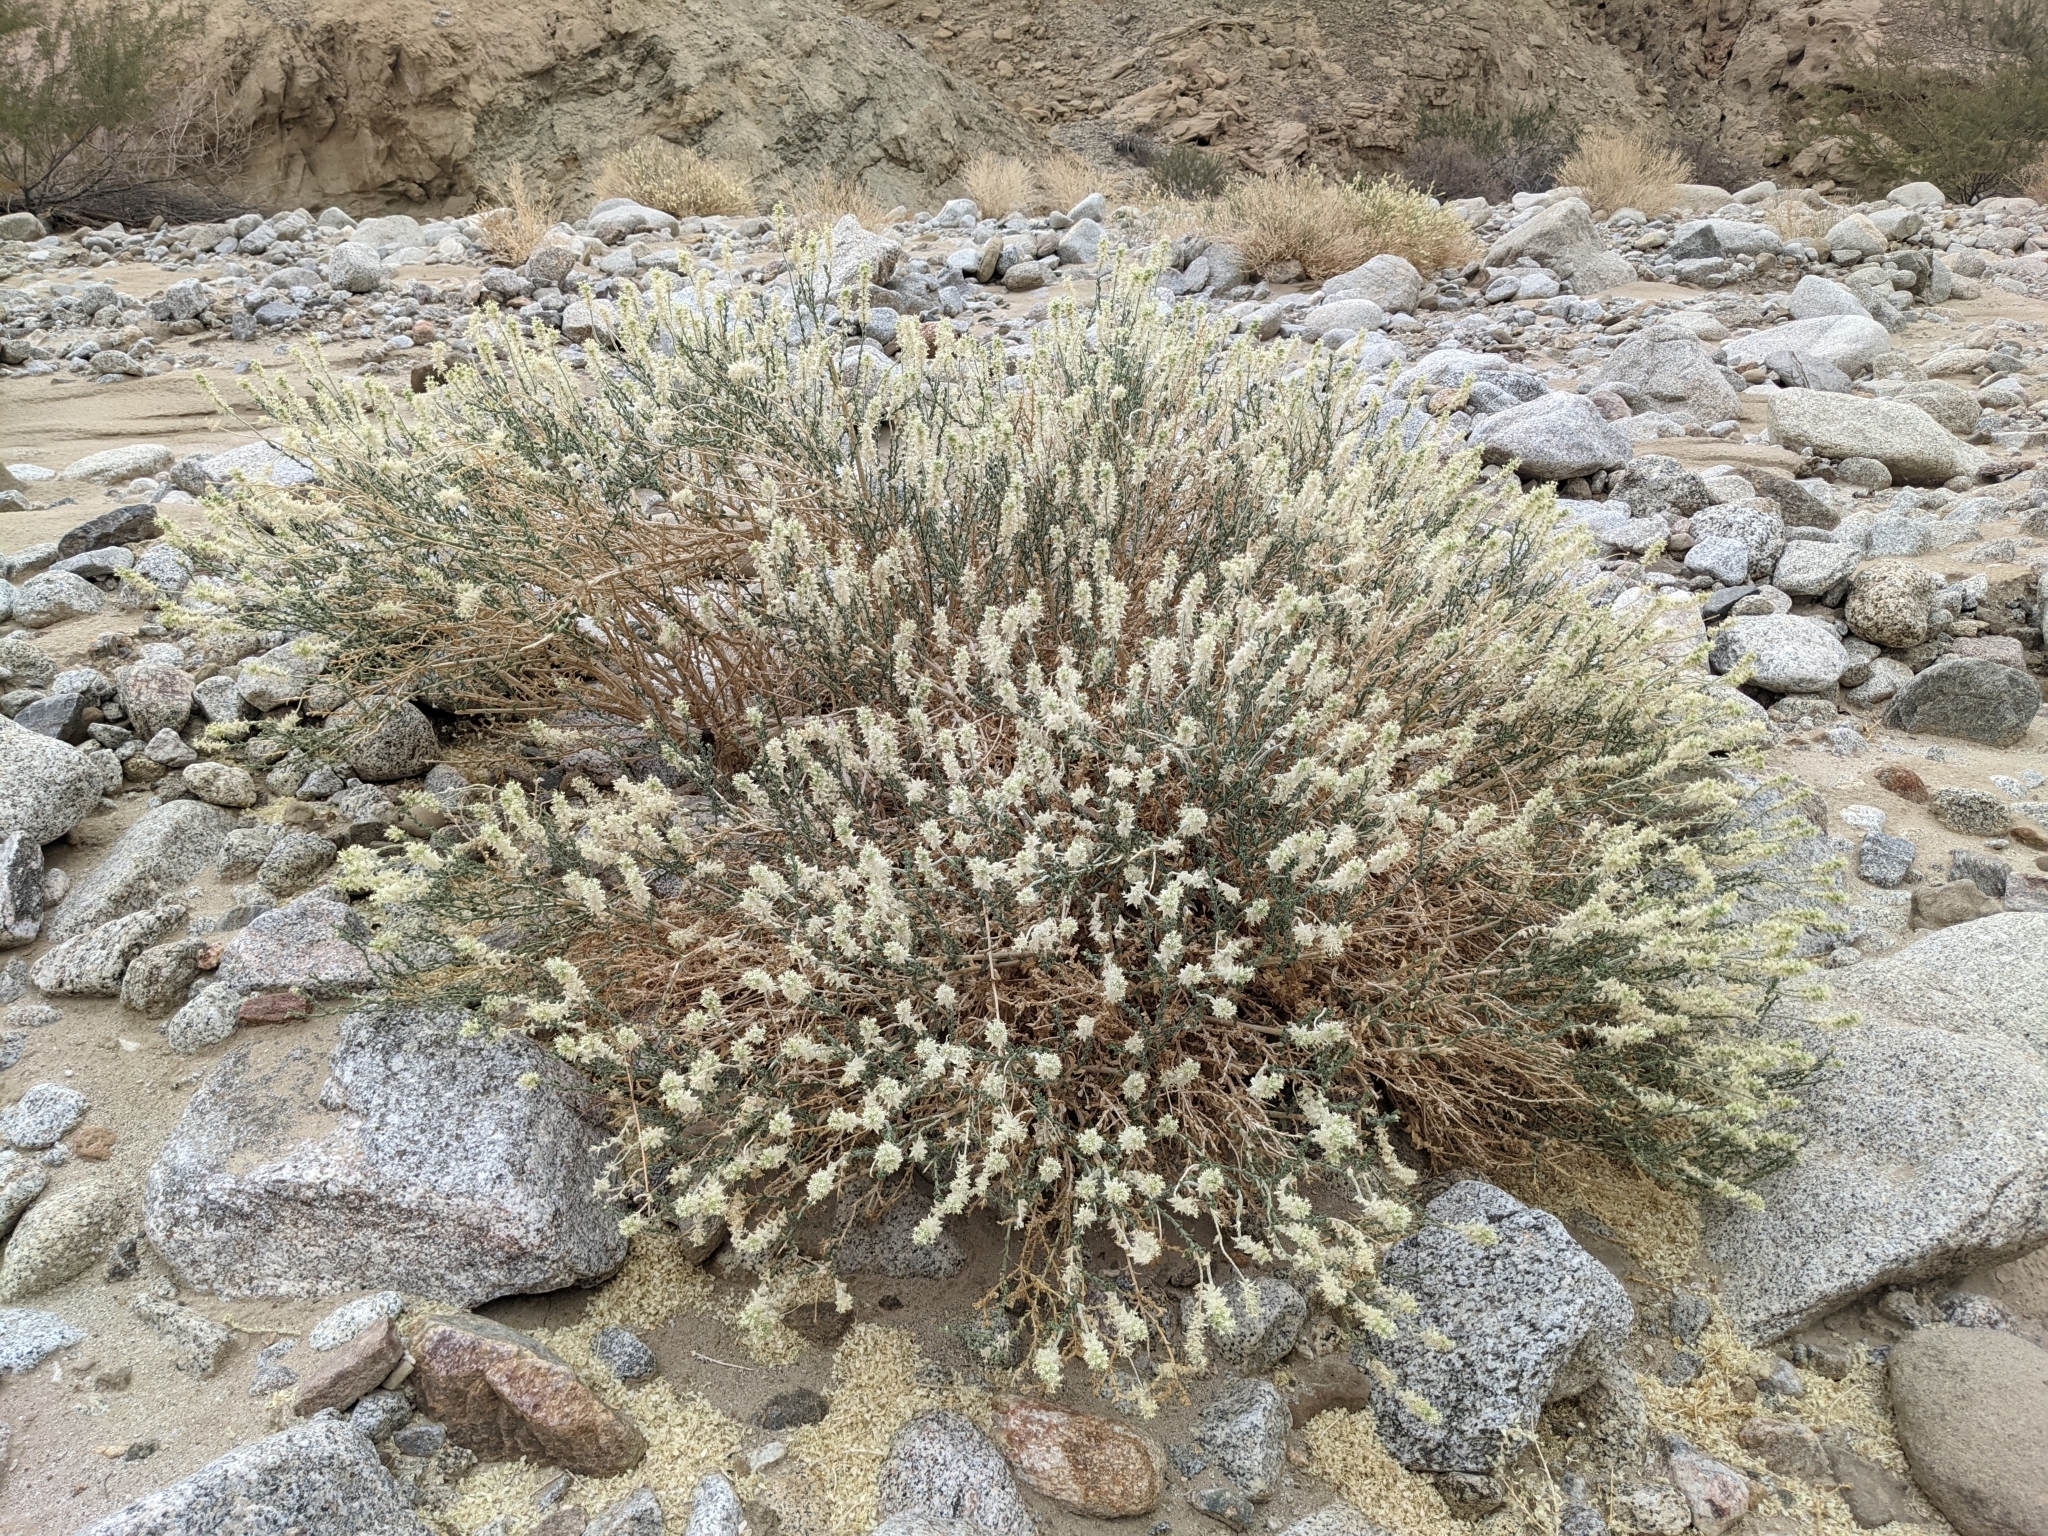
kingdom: Plantae
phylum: Tracheophyta
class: Magnoliopsida
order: Cornales
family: Loasaceae
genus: Petalonyx
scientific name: Petalonyx thurberi
